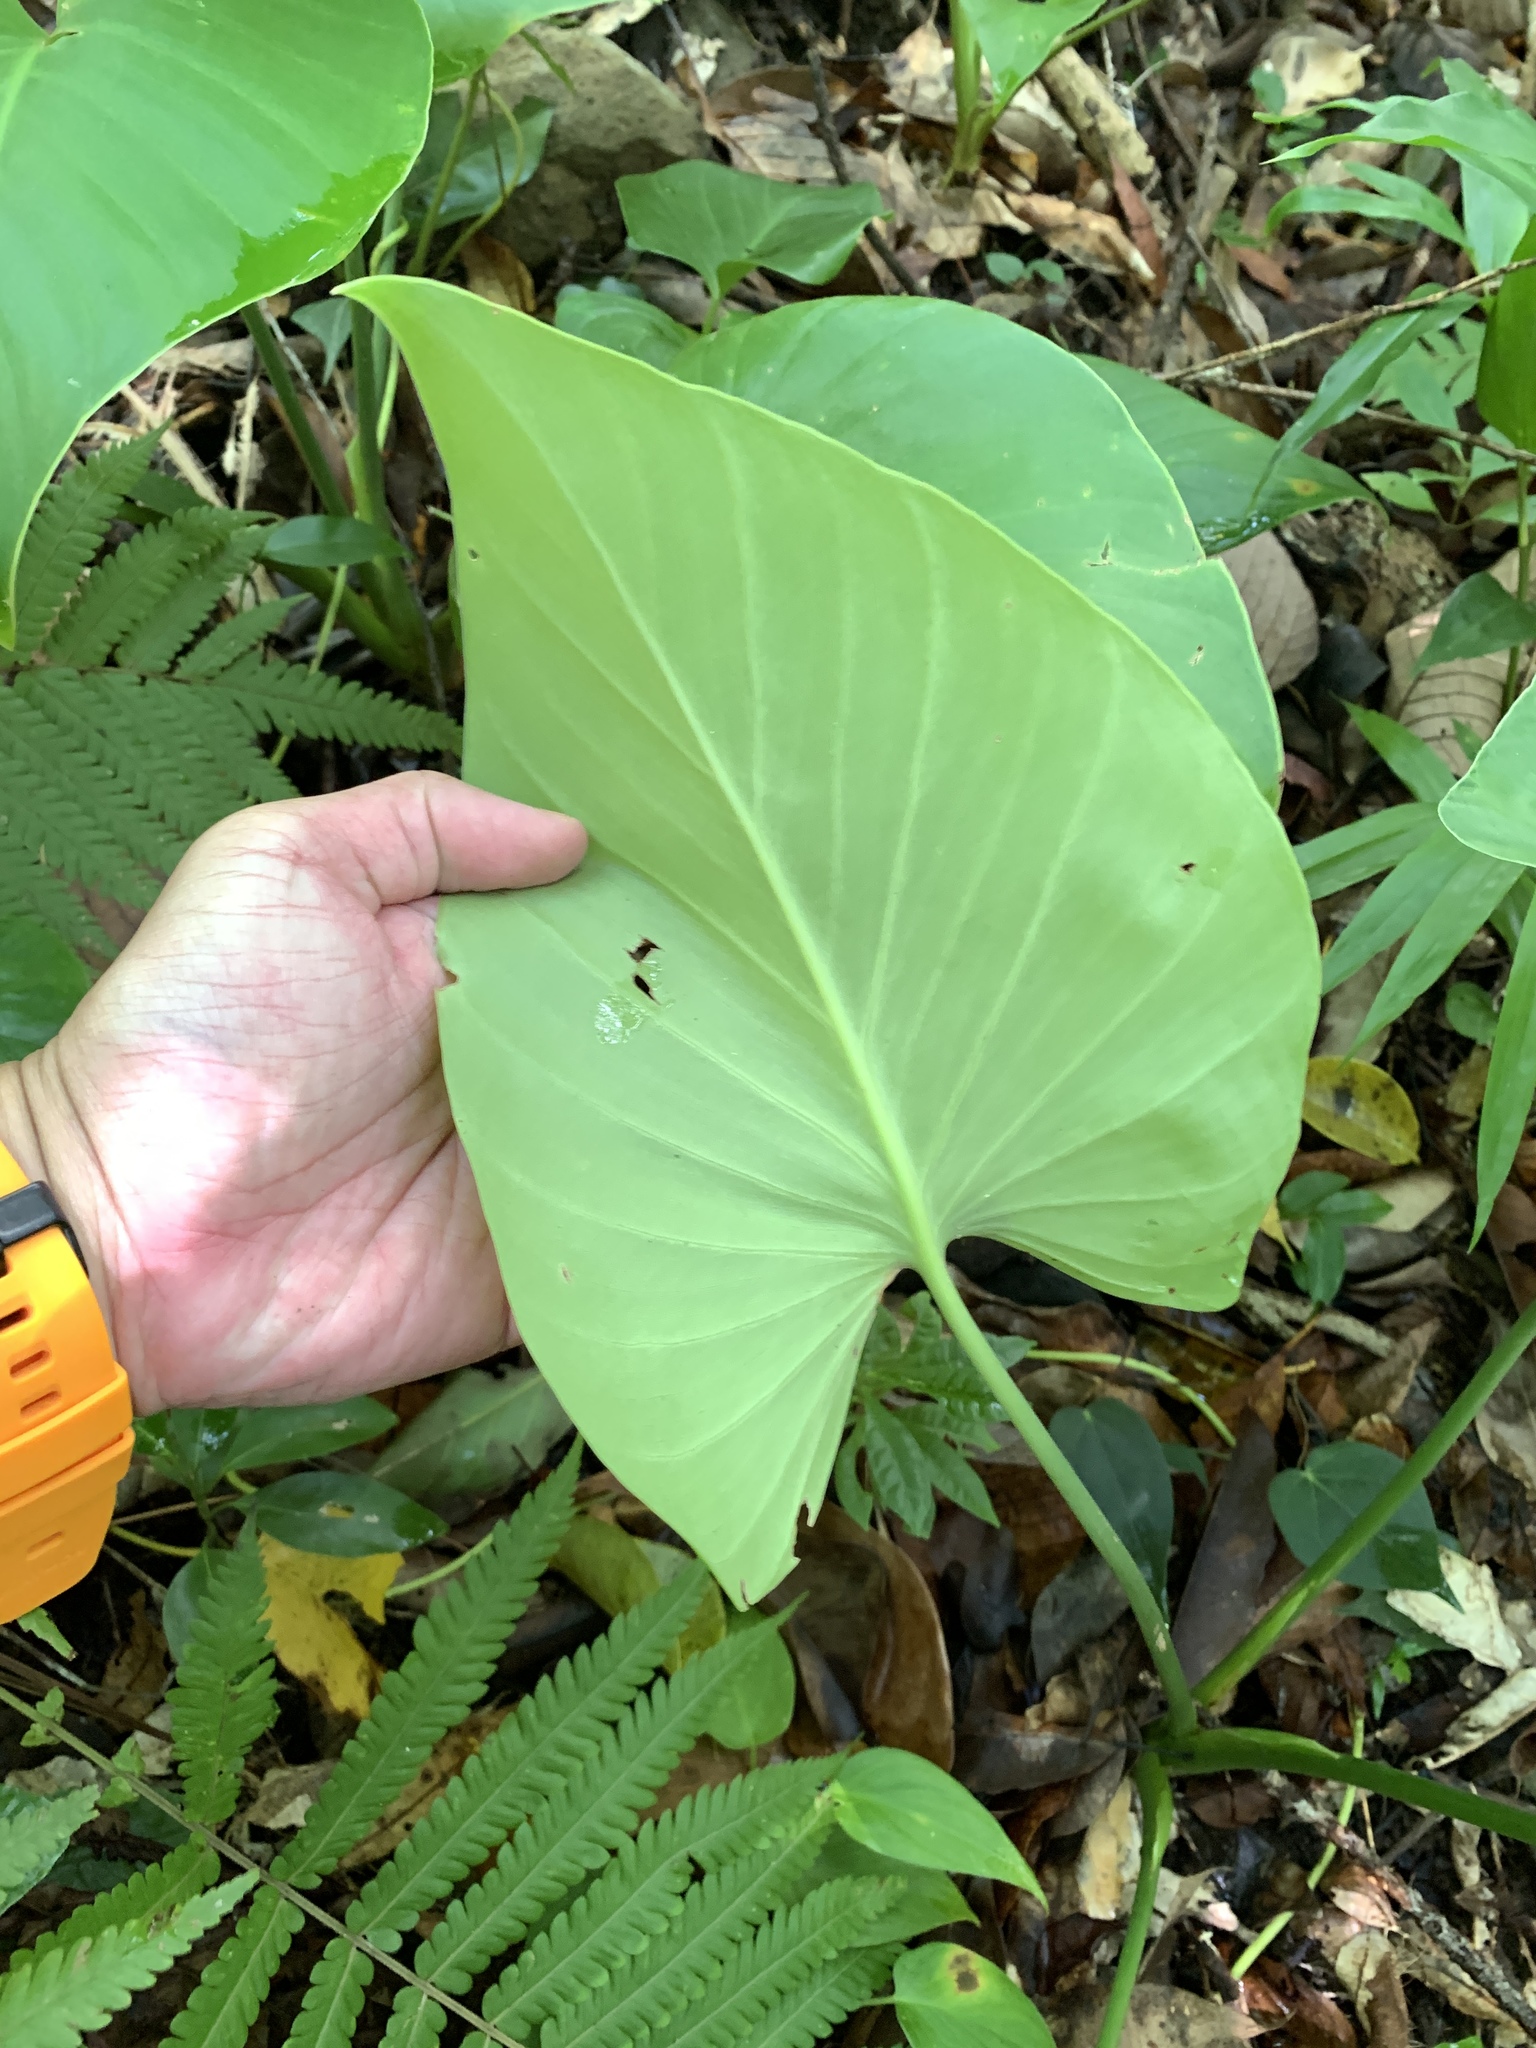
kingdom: Plantae
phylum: Tracheophyta
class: Liliopsida
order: Alismatales
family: Araceae
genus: Homalomena
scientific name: Homalomena philippinensis
